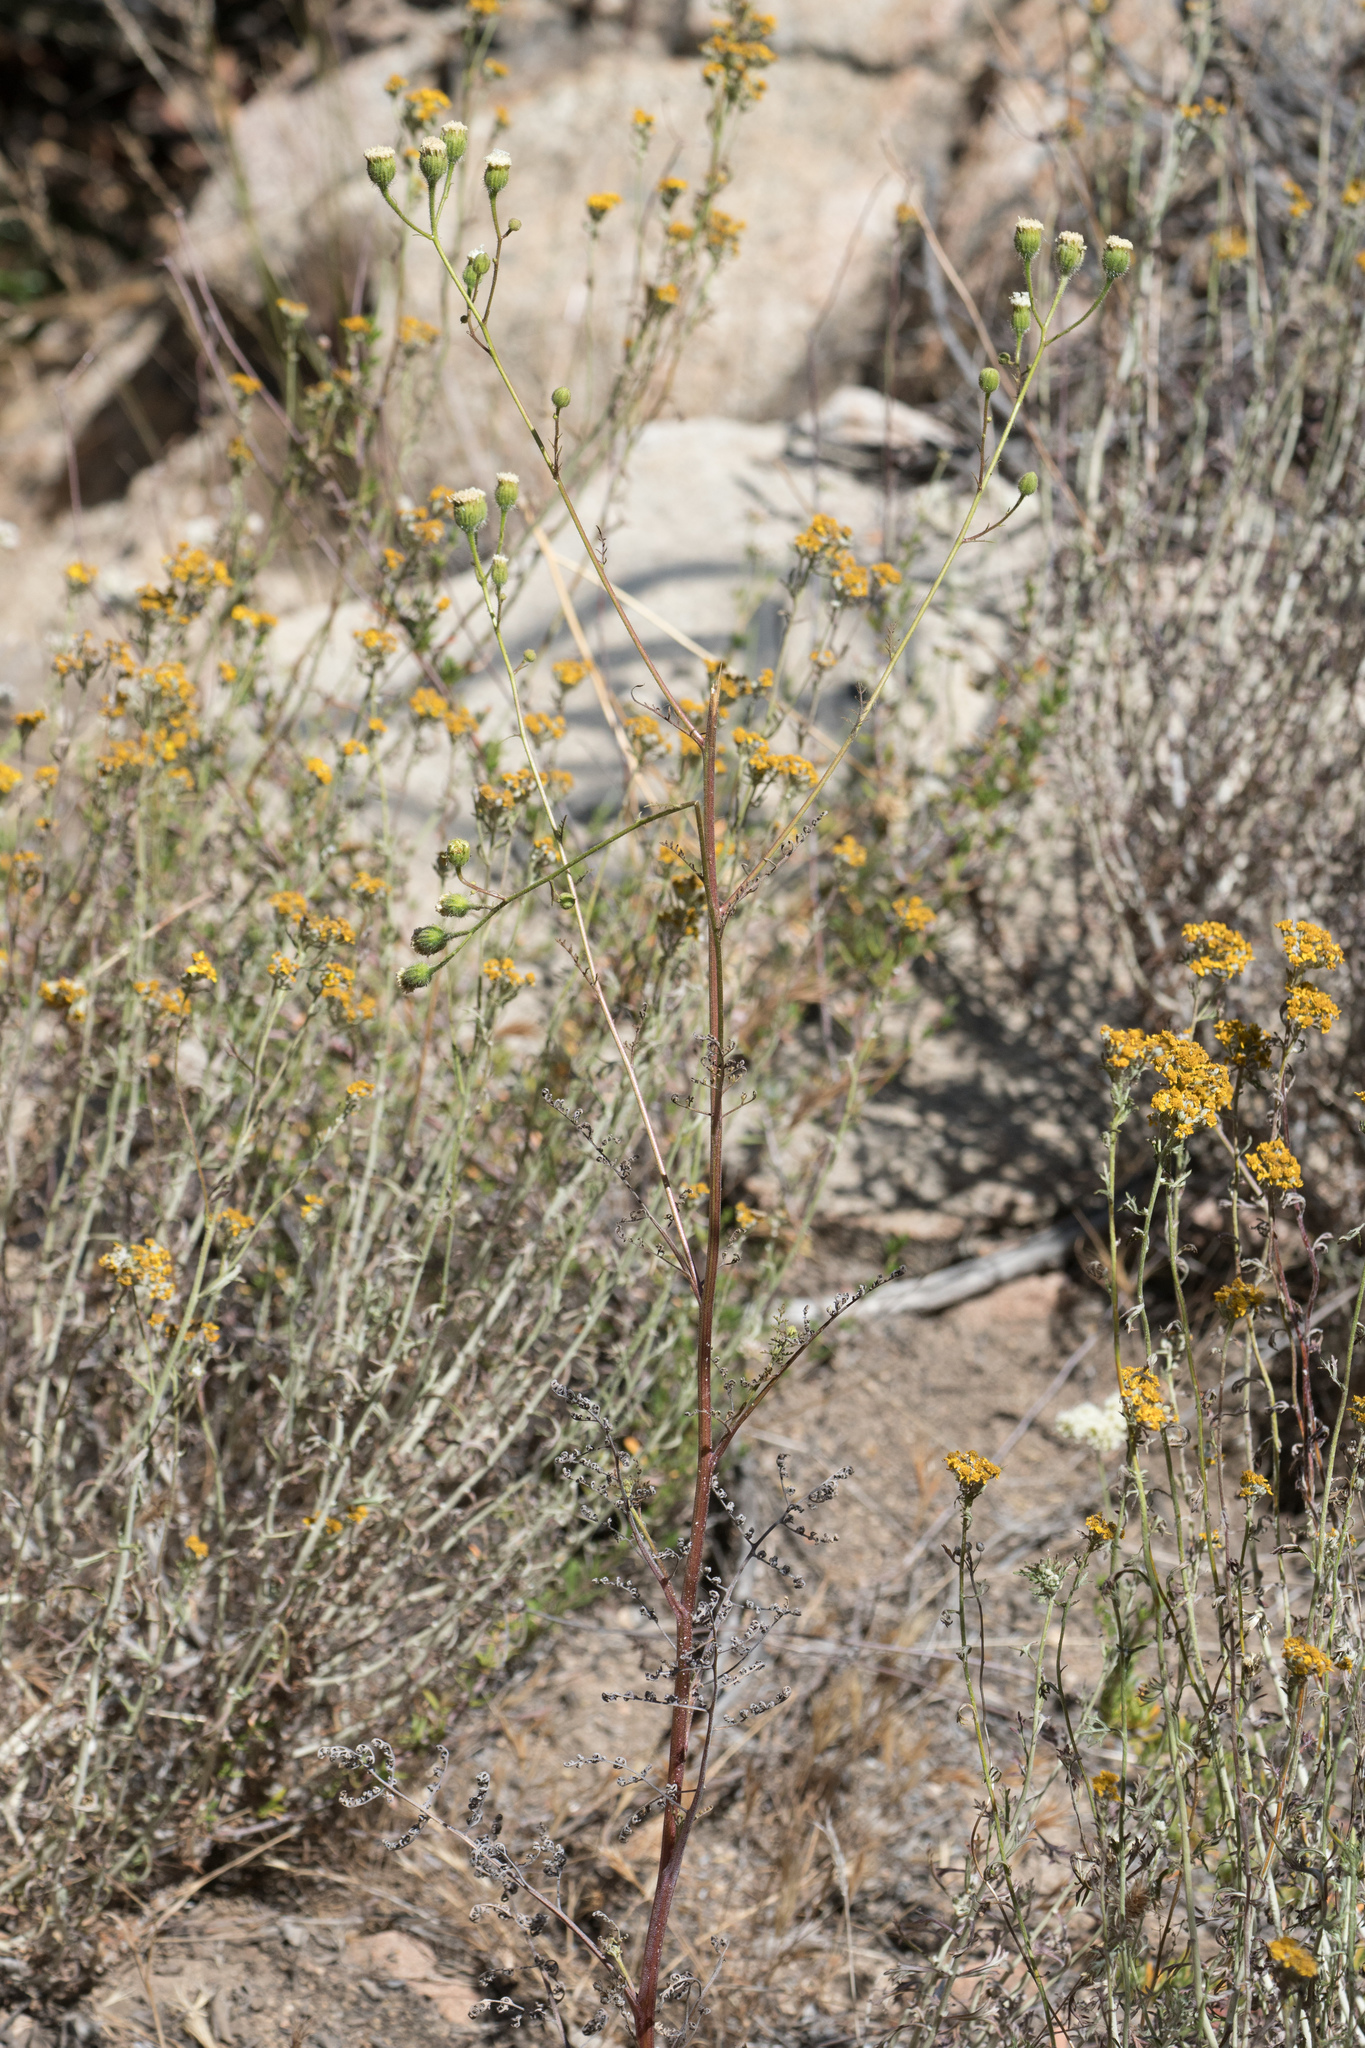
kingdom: Plantae
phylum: Tracheophyta
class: Magnoliopsida
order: Asterales
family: Asteraceae
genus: Chaenactis
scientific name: Chaenactis artemisiifolia
